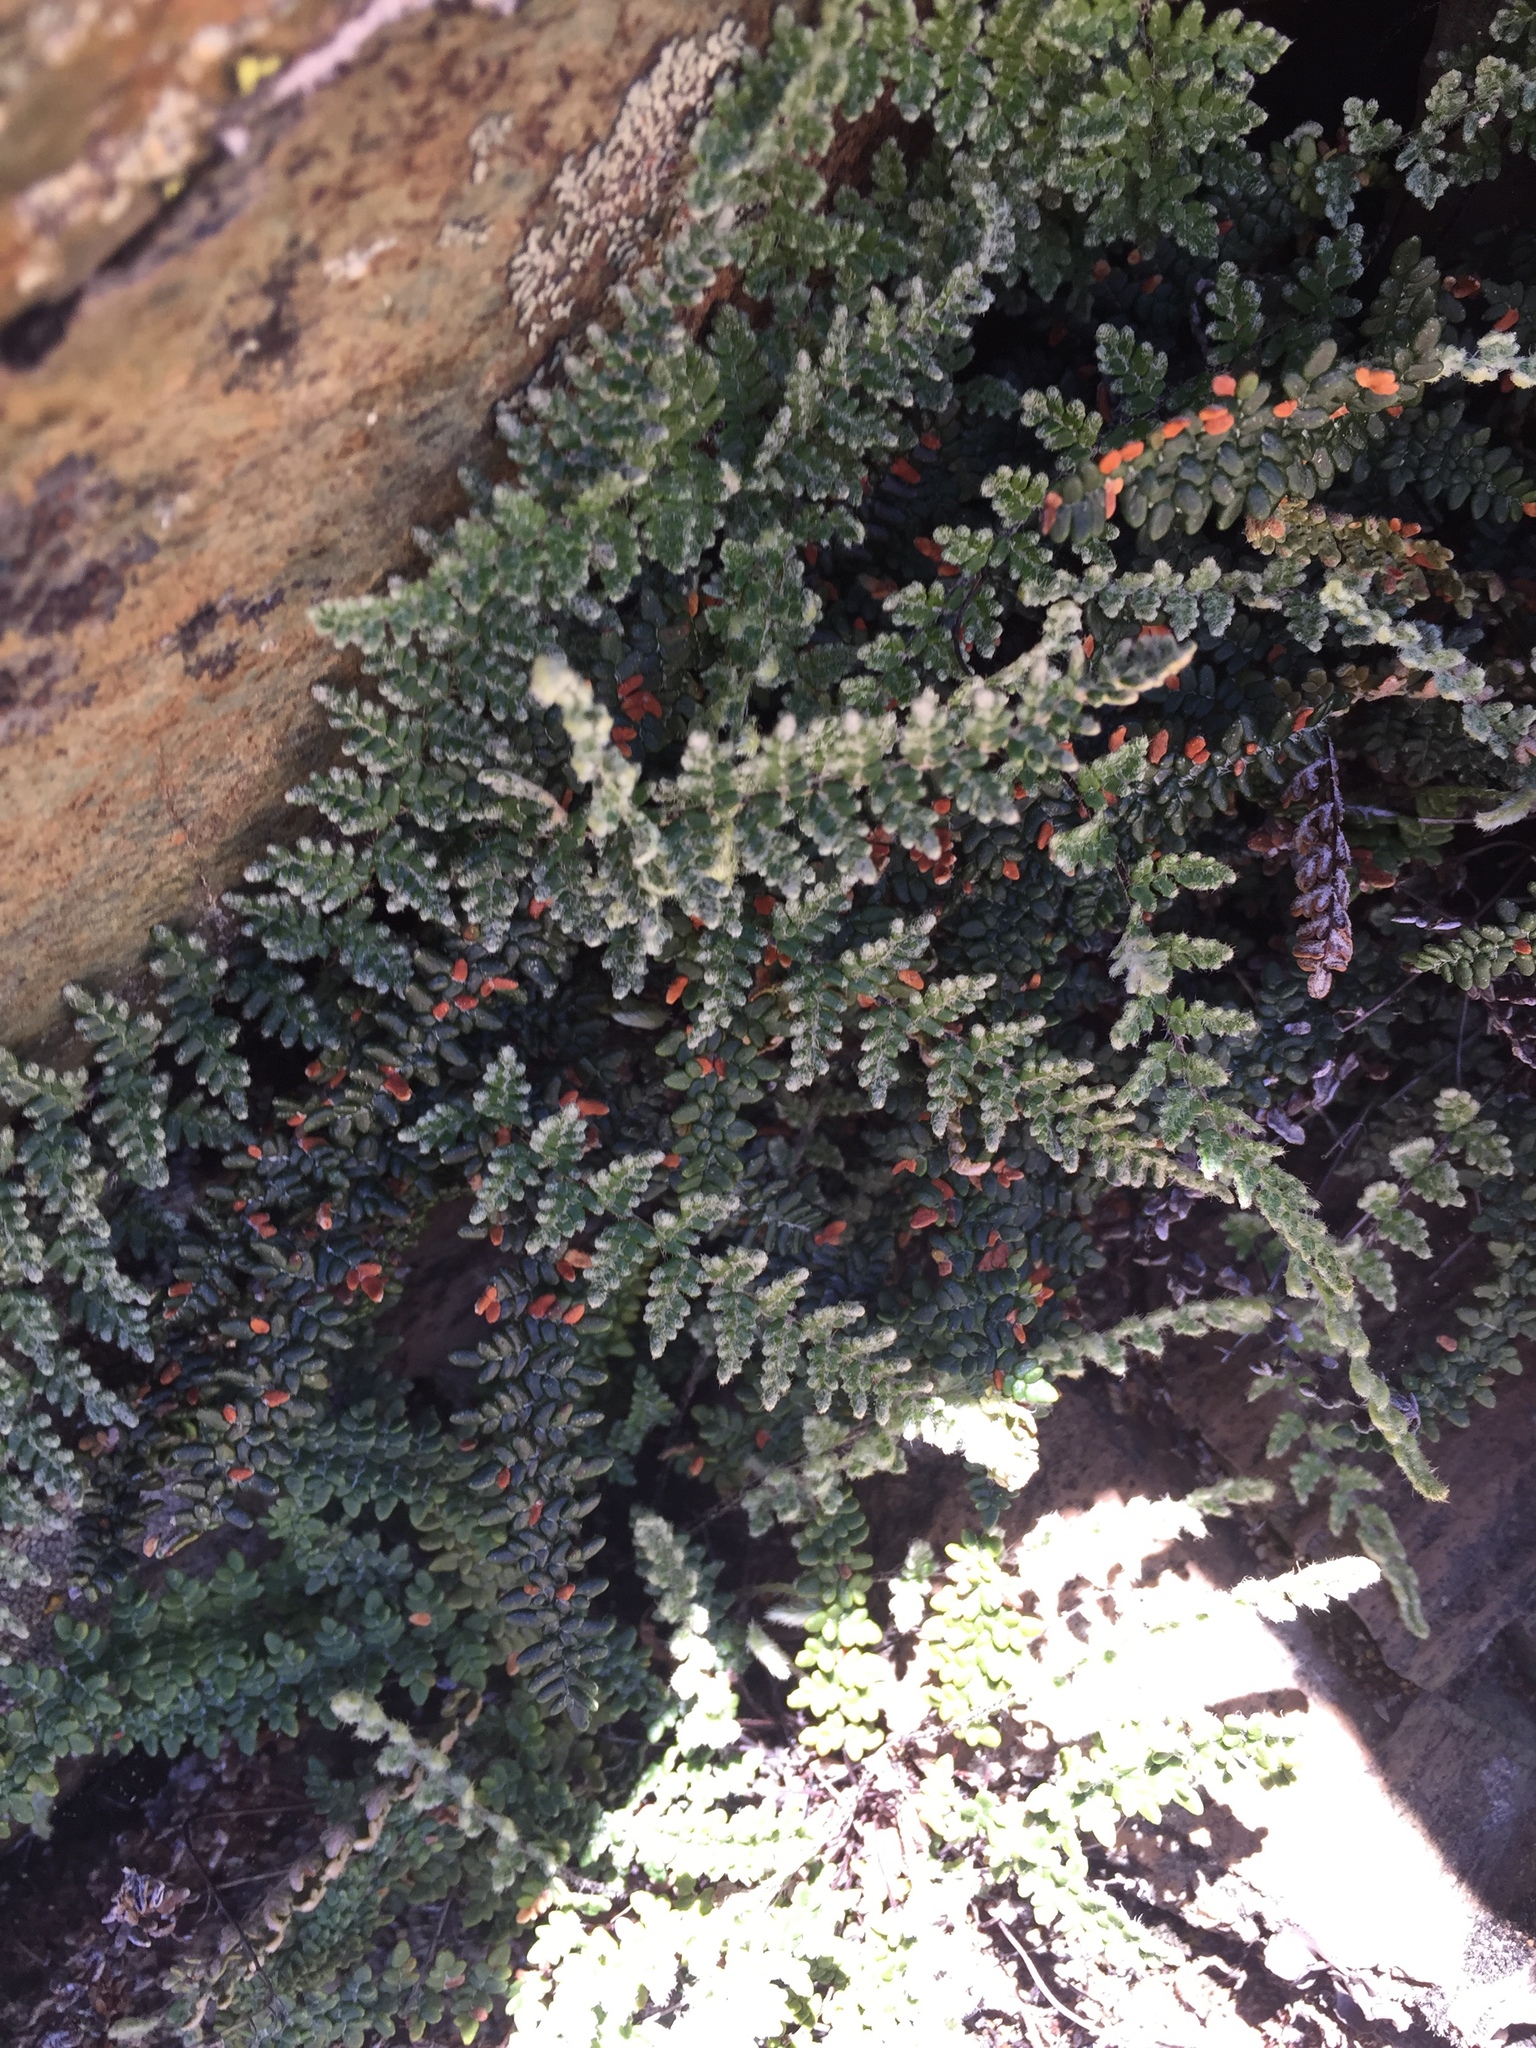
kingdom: Plantae
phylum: Tracheophyta
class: Polypodiopsida
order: Polypodiales
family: Pteridaceae
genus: Myriopteris
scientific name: Myriopteris gracillima
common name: Lace fern
